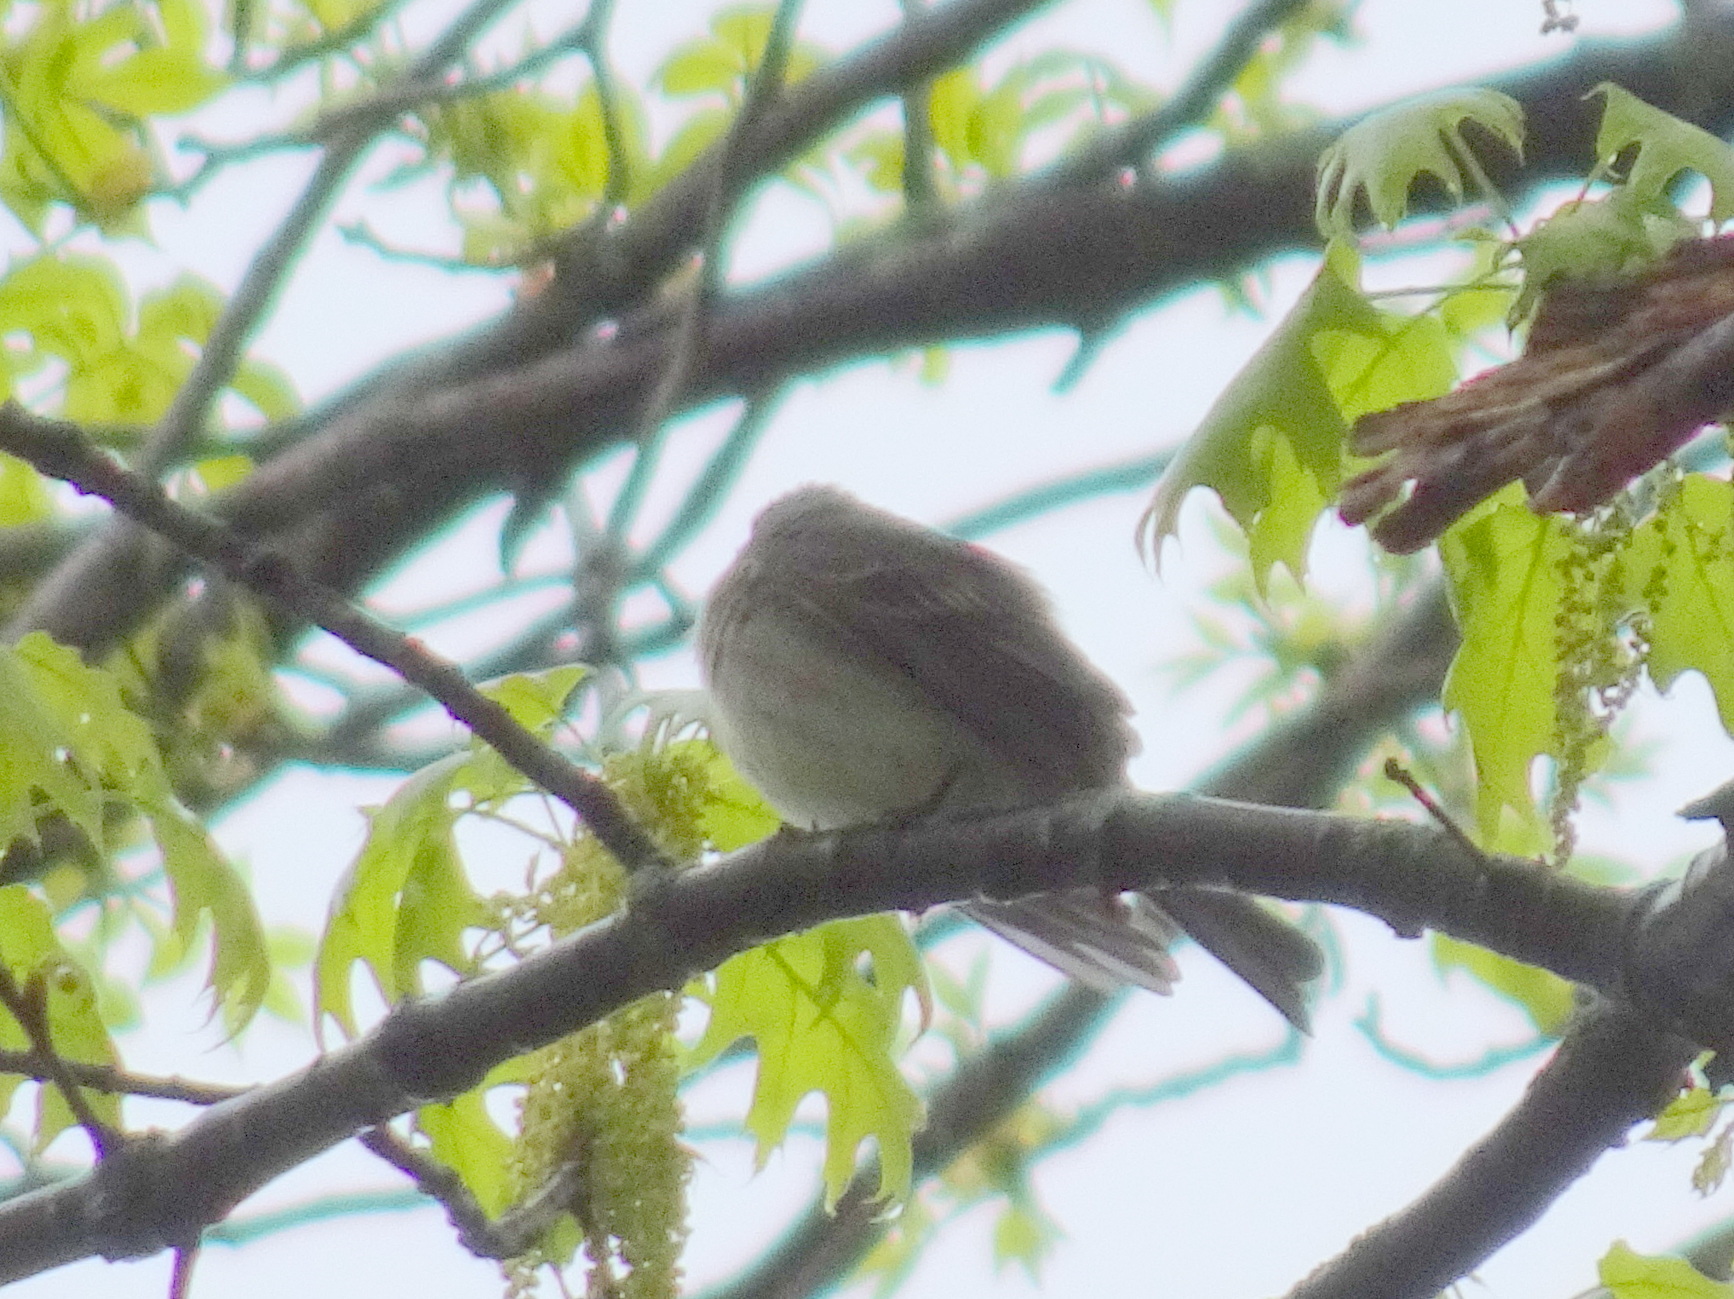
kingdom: Animalia
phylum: Chordata
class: Aves
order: Passeriformes
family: Tyrannidae
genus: Contopus
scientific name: Contopus virens
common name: Eastern wood-pewee
